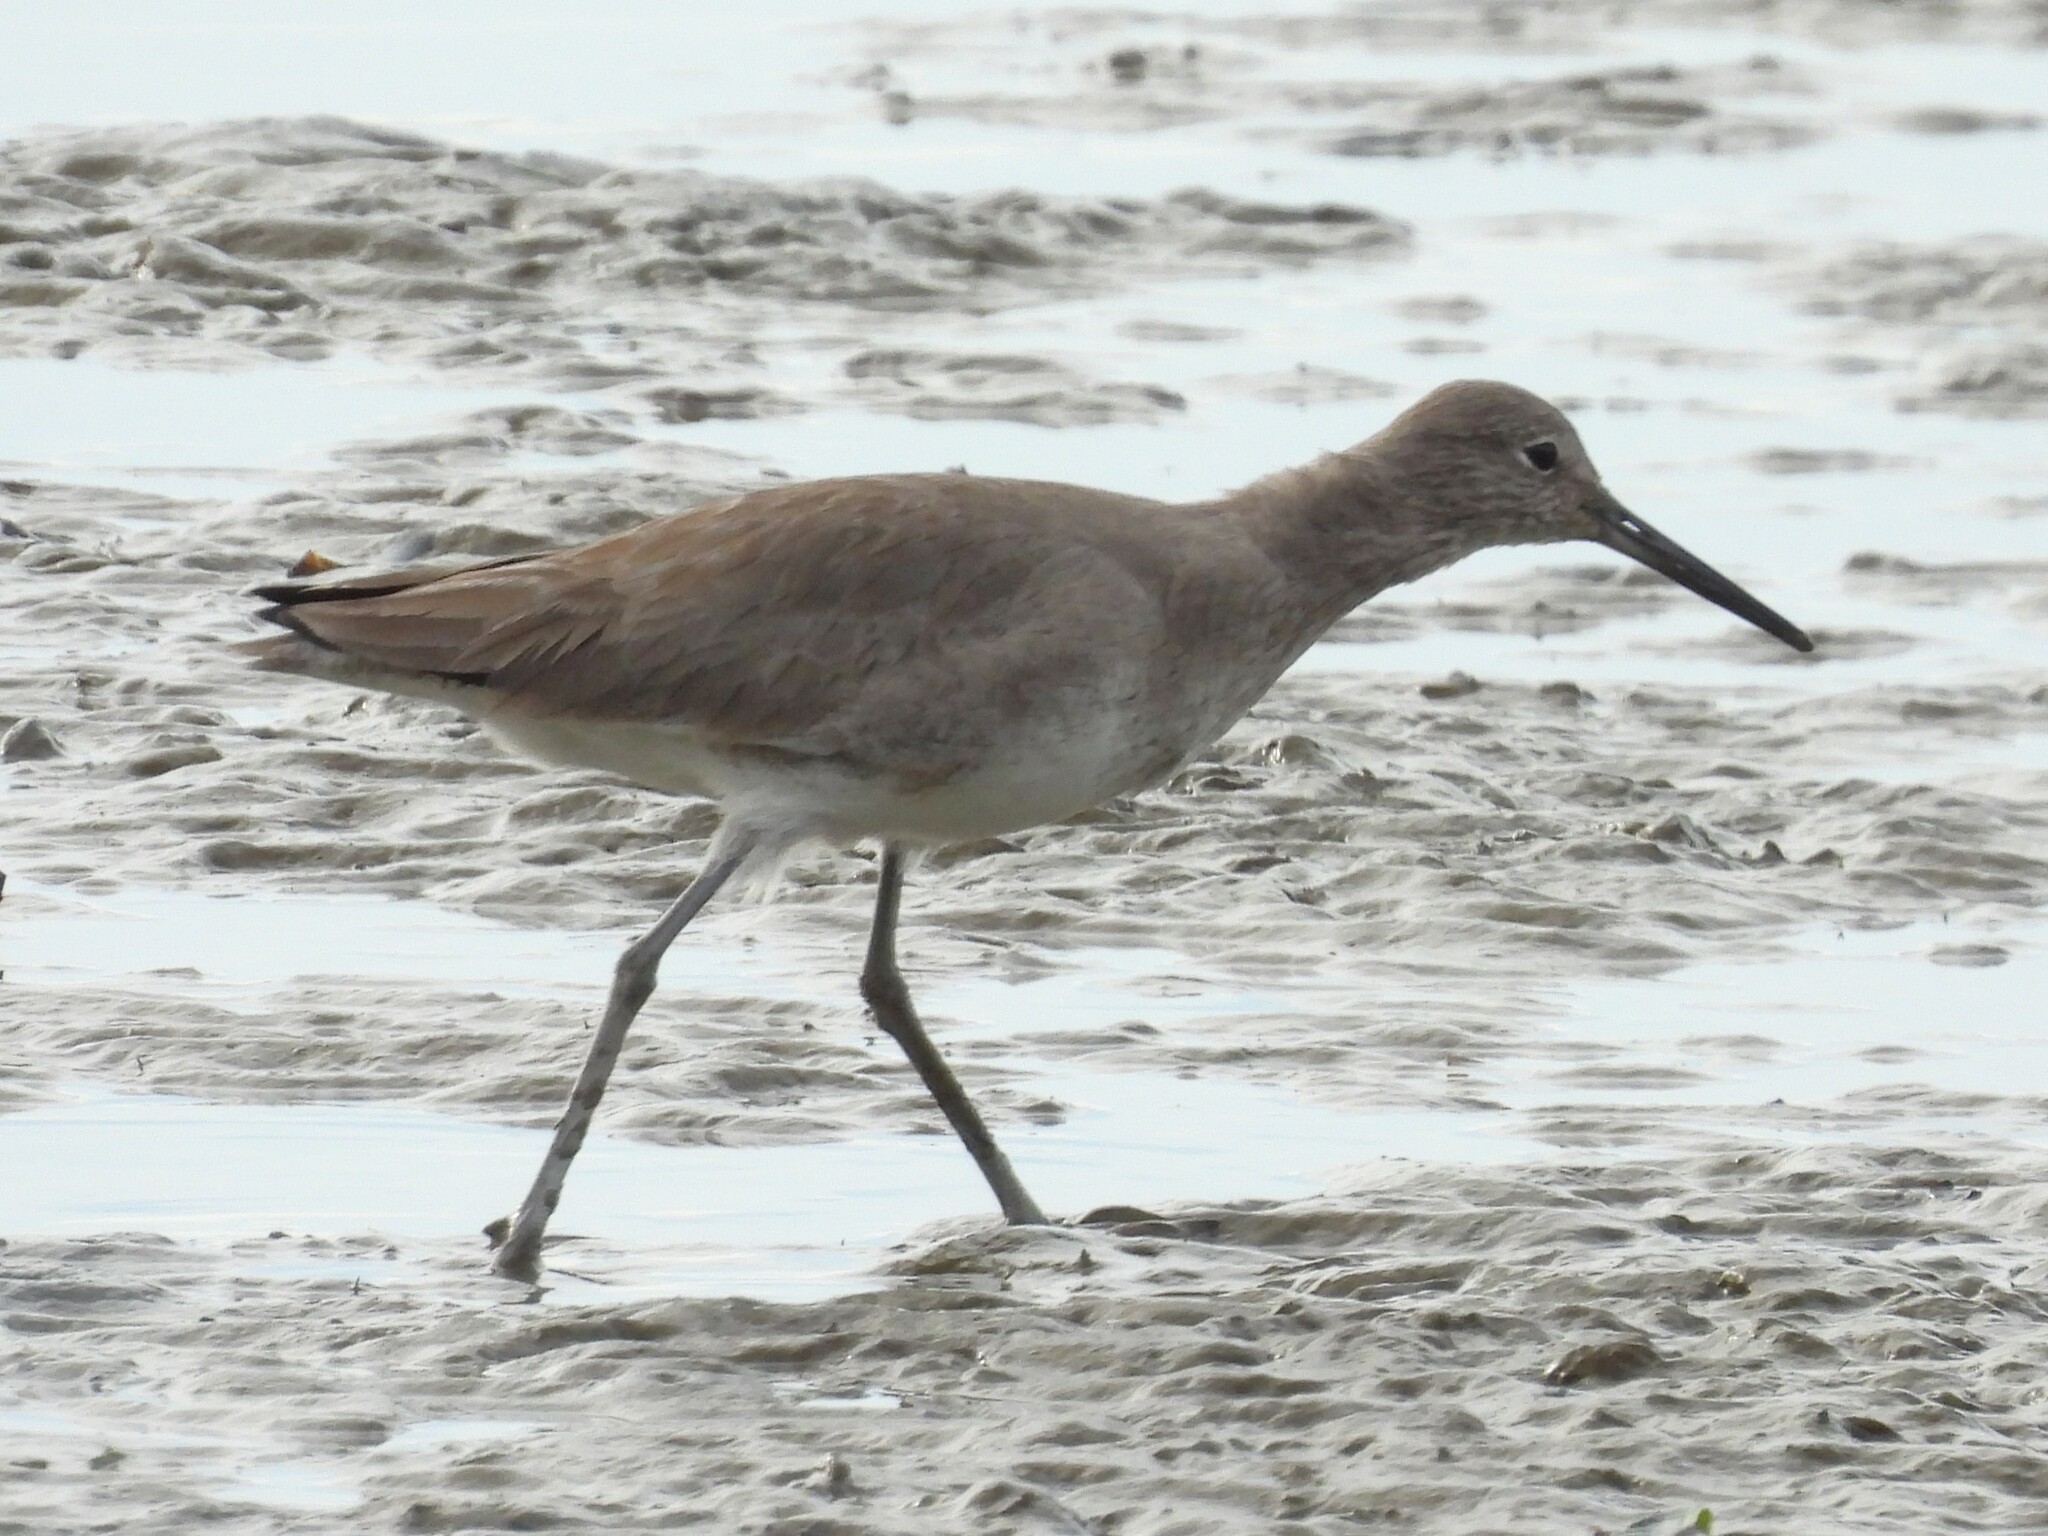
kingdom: Animalia
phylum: Chordata
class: Aves
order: Charadriiformes
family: Scolopacidae
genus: Tringa
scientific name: Tringa semipalmata
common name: Willet
